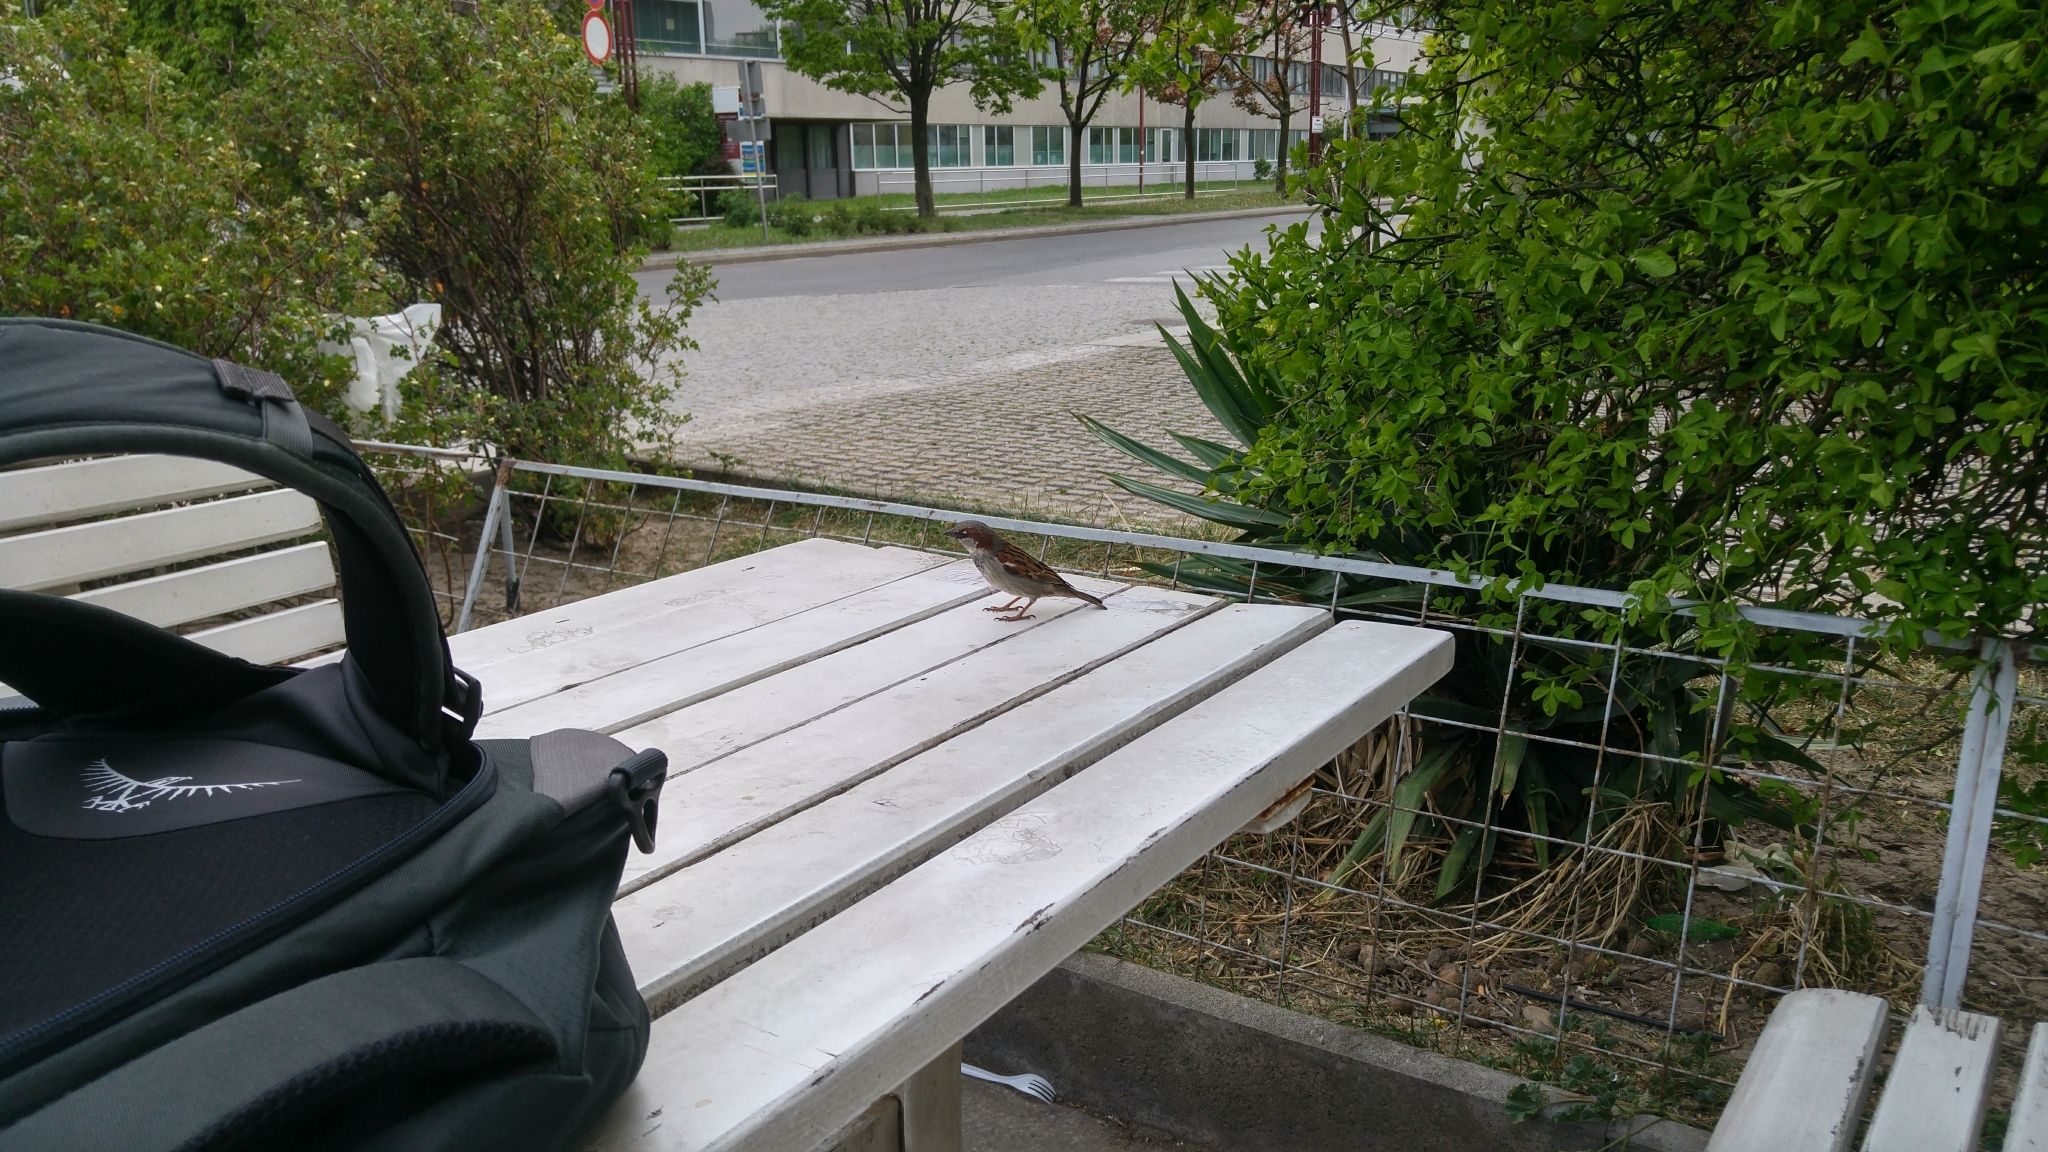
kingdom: Animalia
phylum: Chordata
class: Aves
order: Passeriformes
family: Passeridae
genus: Passer
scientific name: Passer domesticus
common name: House sparrow
